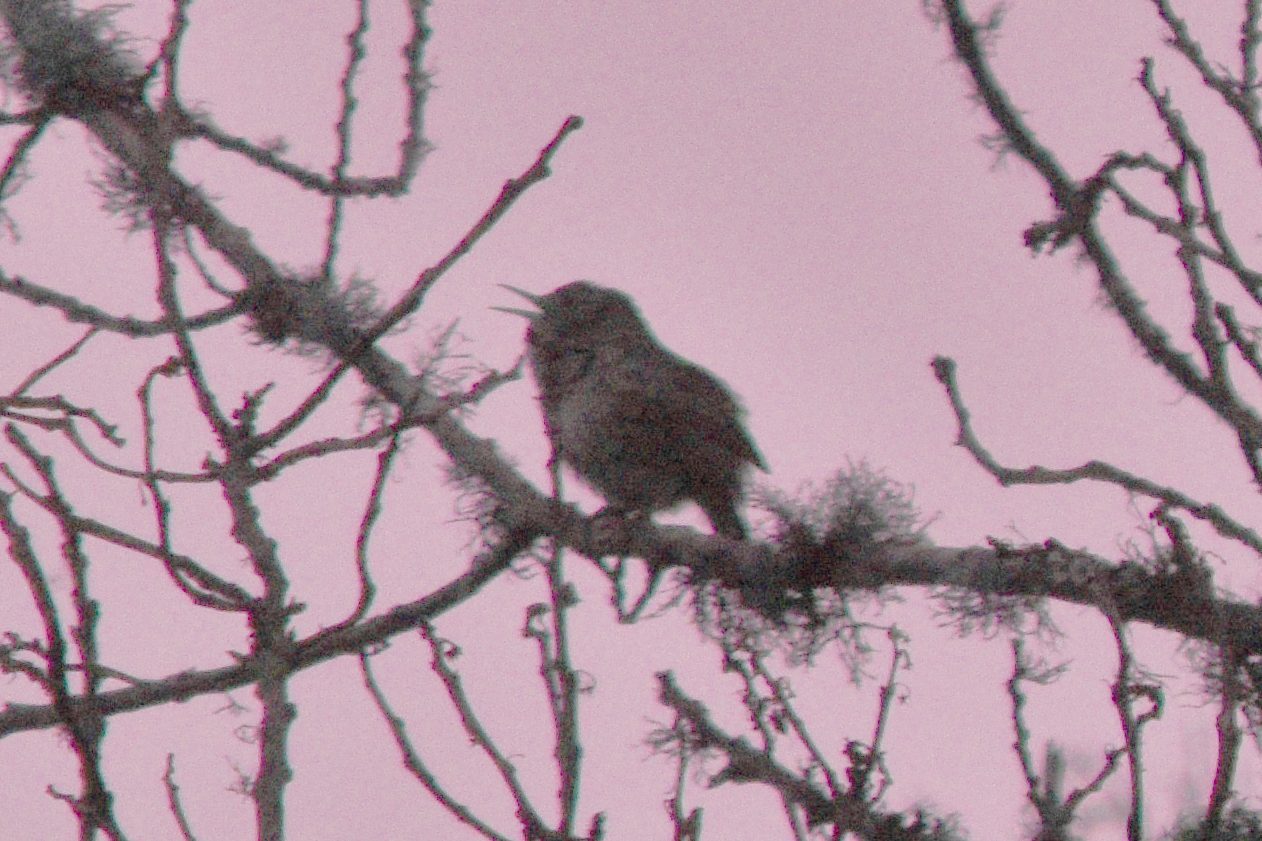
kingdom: Animalia
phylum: Chordata
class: Aves
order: Passeriformes
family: Troglodytidae
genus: Troglodytes
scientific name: Troglodytes aedon
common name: House wren
